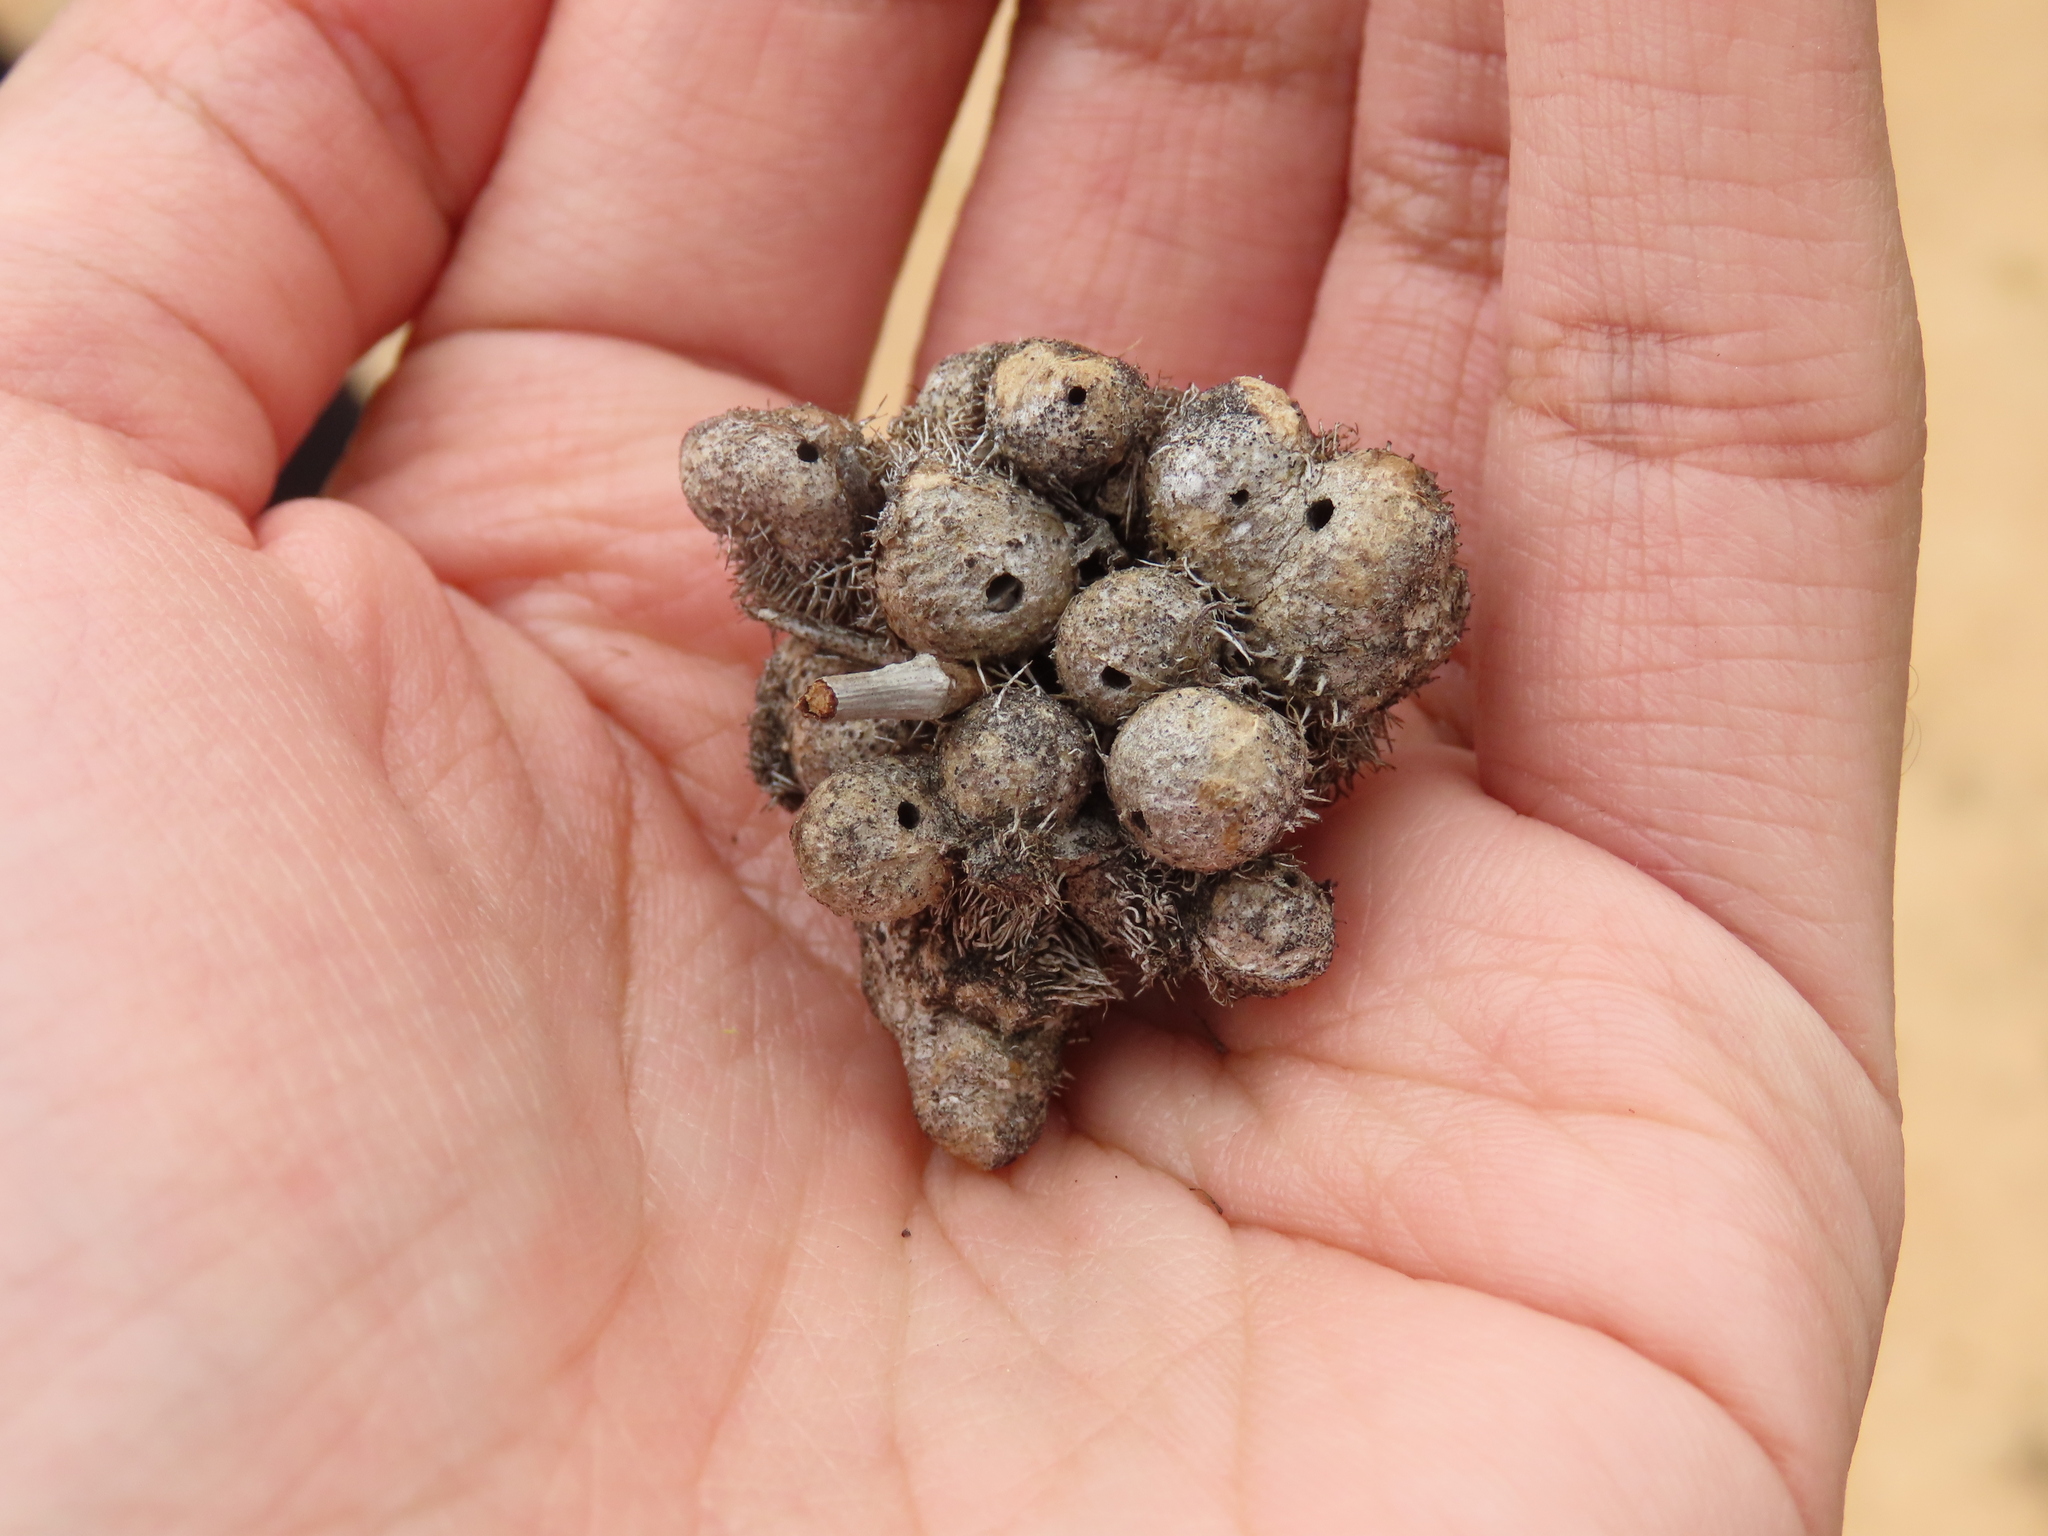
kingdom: Animalia
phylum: Arthropoda
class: Insecta
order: Hymenoptera
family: Cynipidae
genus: Diplolepis
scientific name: Diplolepis mayri
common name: Gall wasp
